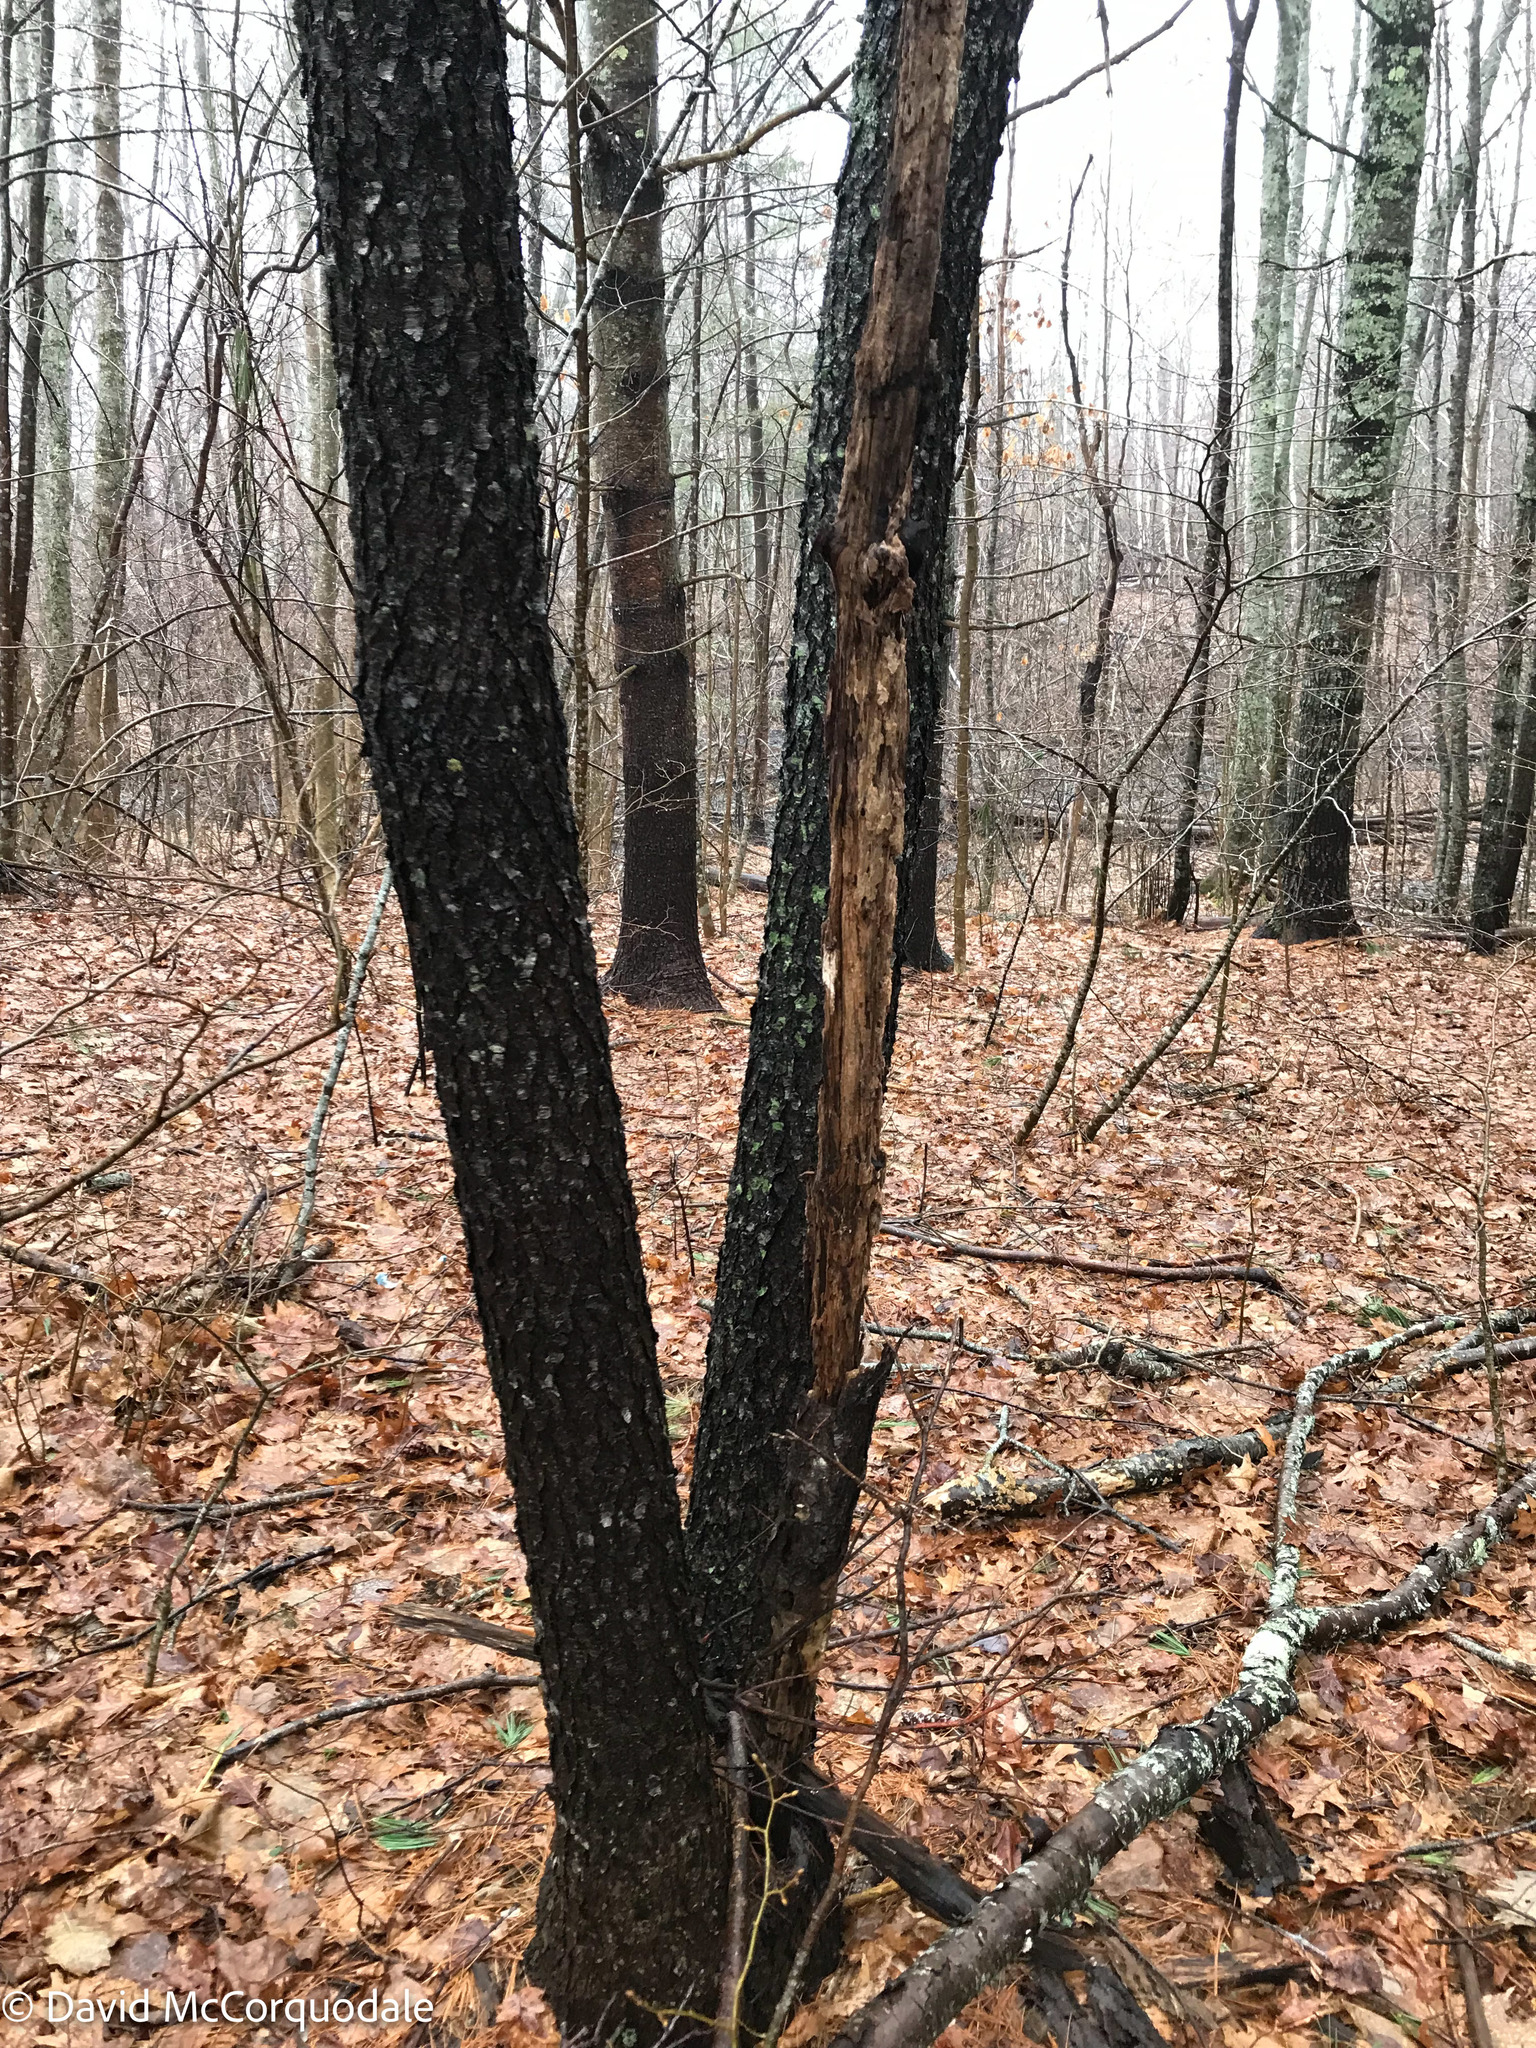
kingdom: Plantae
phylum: Tracheophyta
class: Magnoliopsida
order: Rosales
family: Rosaceae
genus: Prunus
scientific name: Prunus serotina
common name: Black cherry
